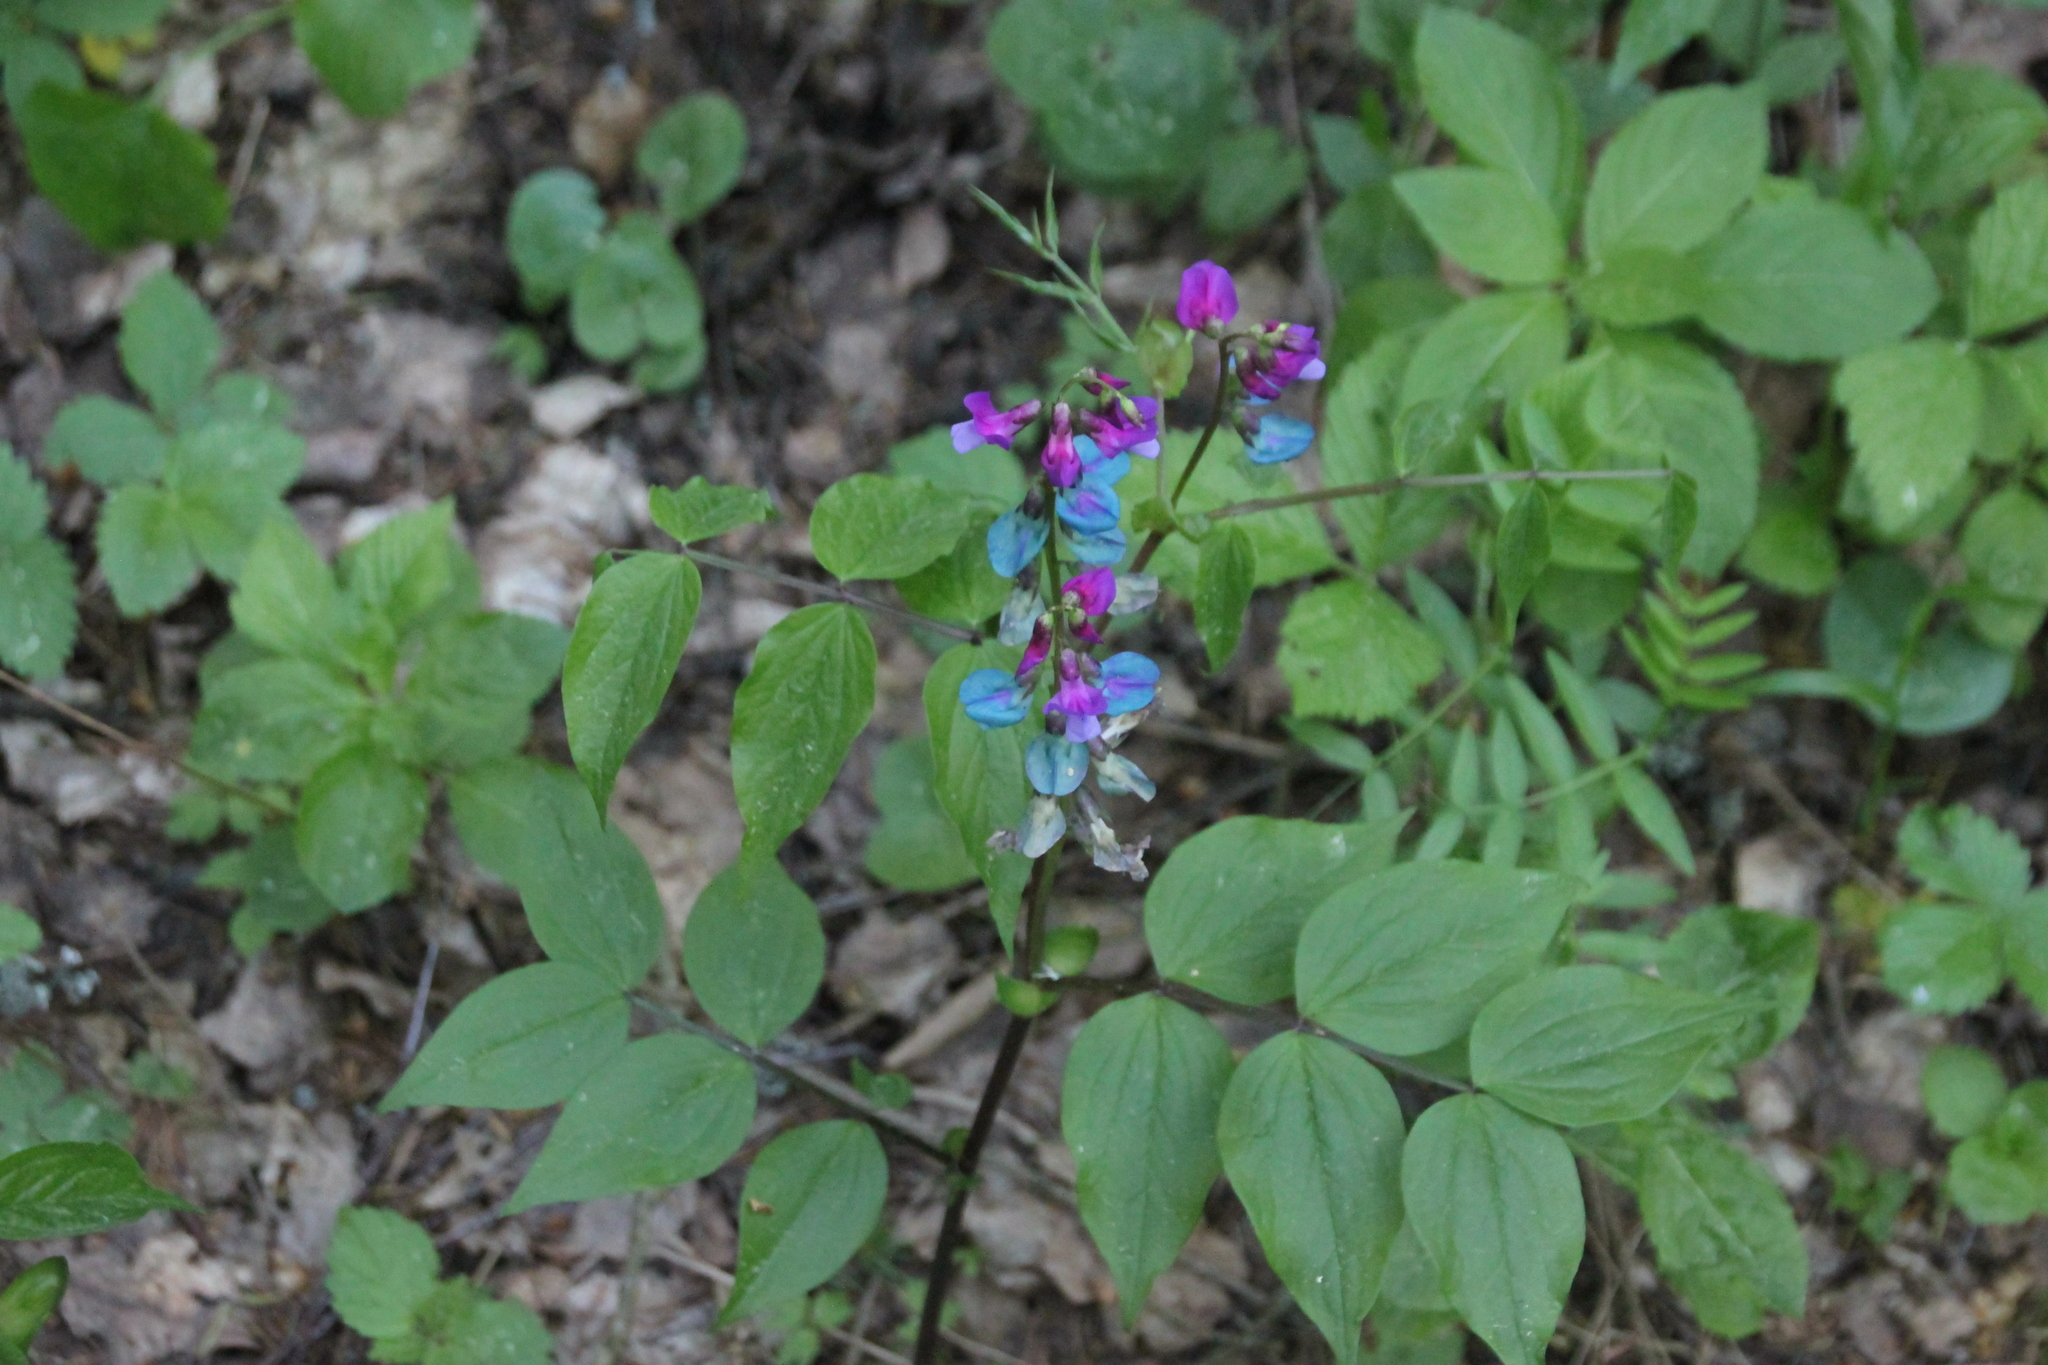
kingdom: Plantae
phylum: Tracheophyta
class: Magnoliopsida
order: Fabales
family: Fabaceae
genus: Lathyrus
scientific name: Lathyrus vernus
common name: Spring pea
